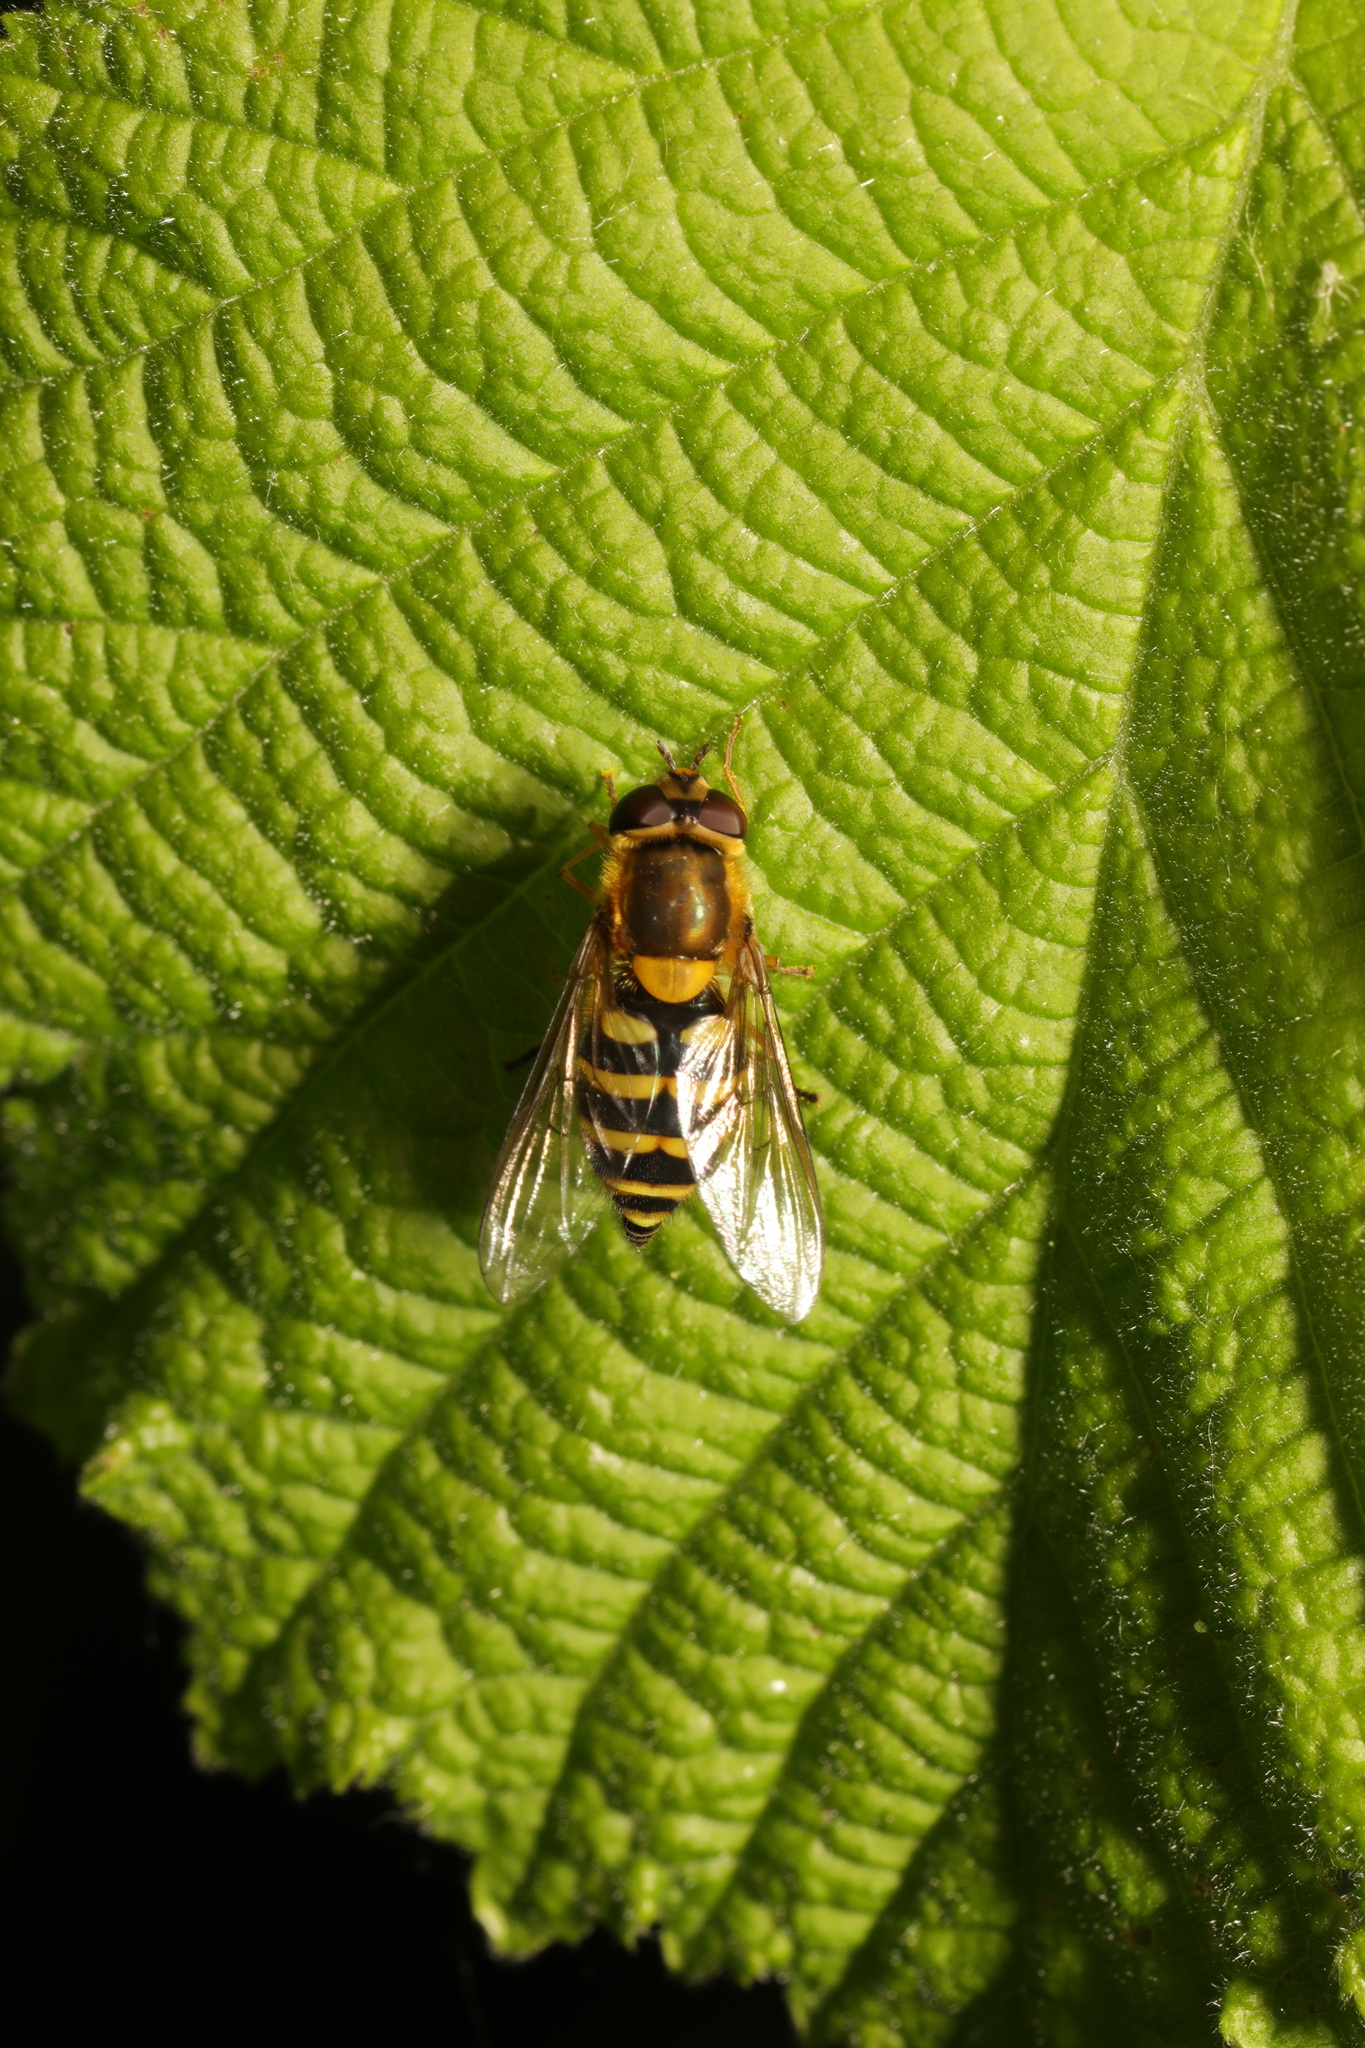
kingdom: Animalia
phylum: Arthropoda
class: Insecta
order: Diptera
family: Syrphidae
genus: Syrphus
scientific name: Syrphus
